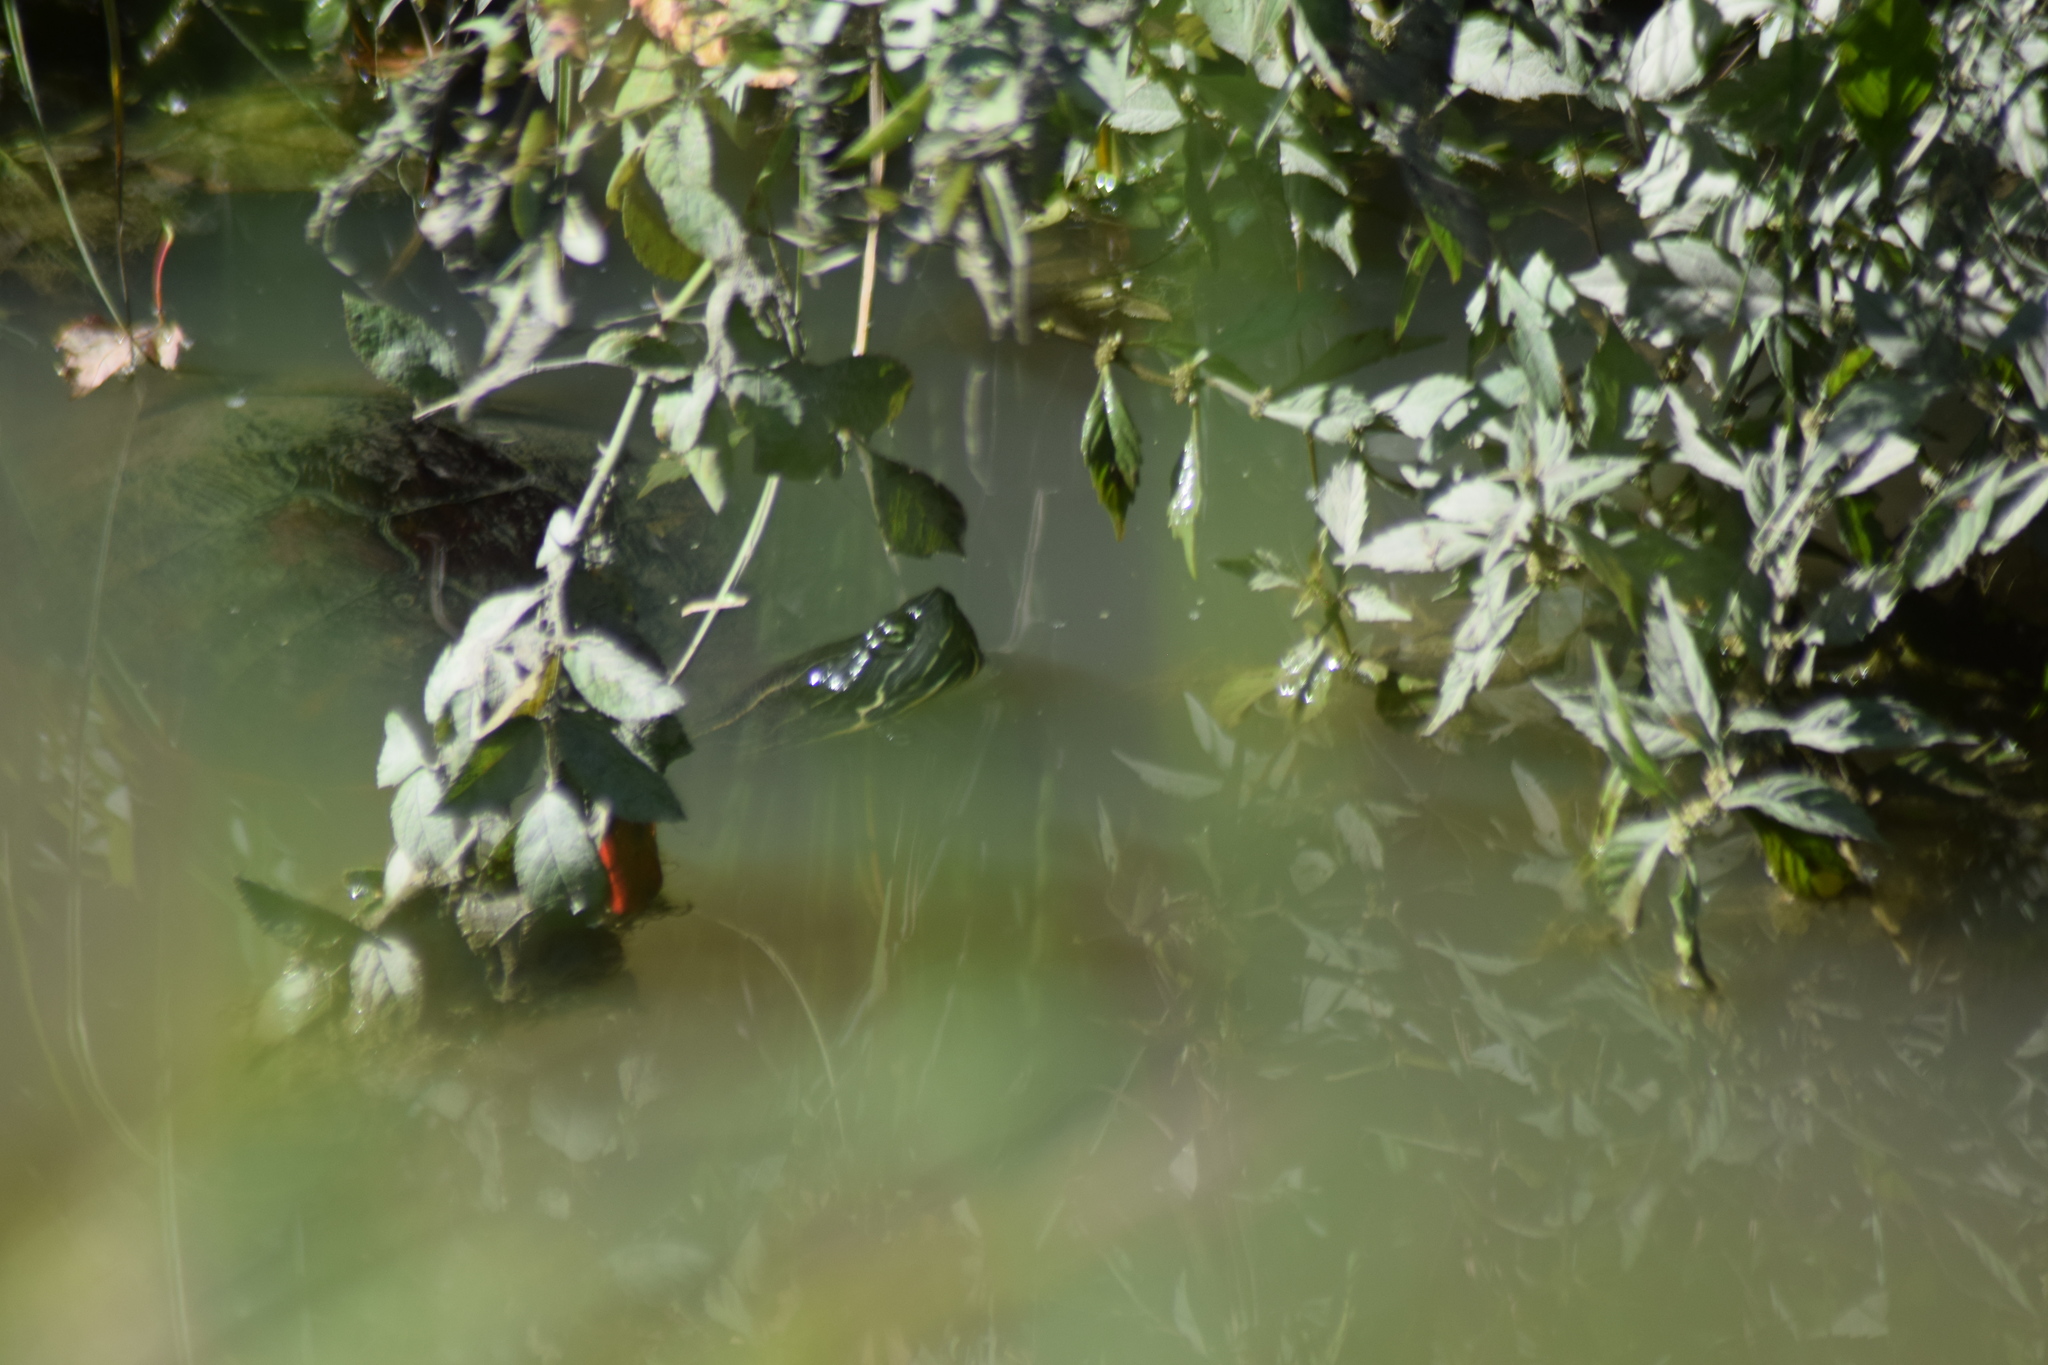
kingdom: Animalia
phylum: Chordata
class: Testudines
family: Emydidae
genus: Pseudemys
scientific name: Pseudemys rubriventris
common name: American red-bellied turtle
